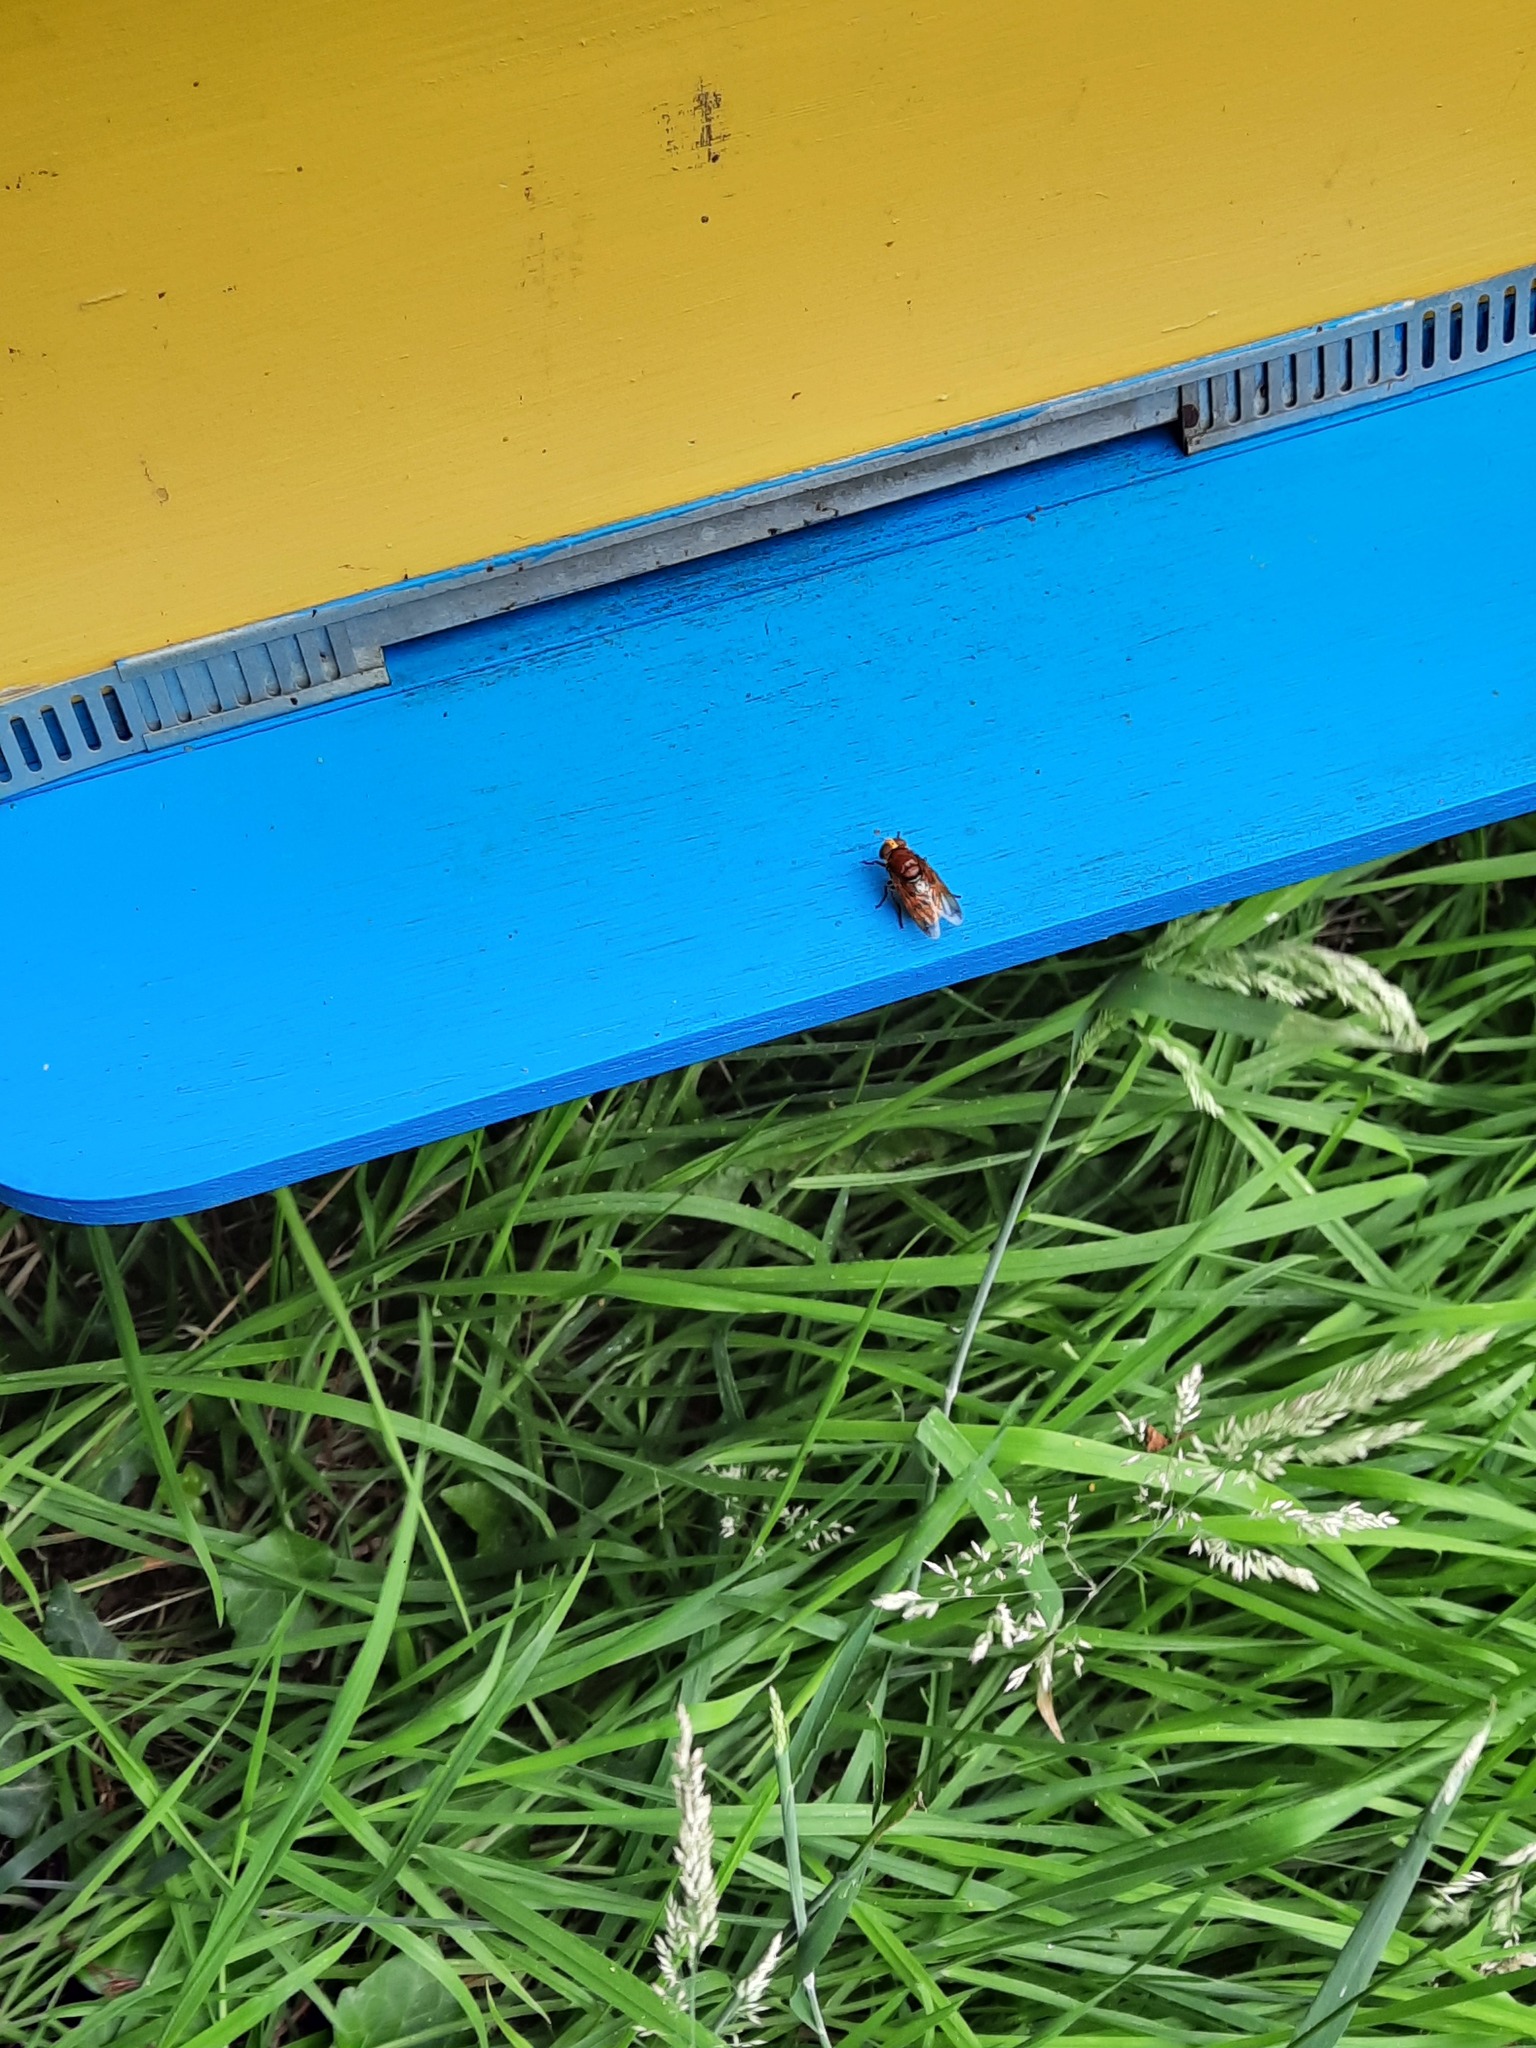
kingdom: Animalia
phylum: Arthropoda
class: Insecta
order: Diptera
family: Syrphidae
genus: Volucella
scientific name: Volucella zonaria
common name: Hornet hoverfly
